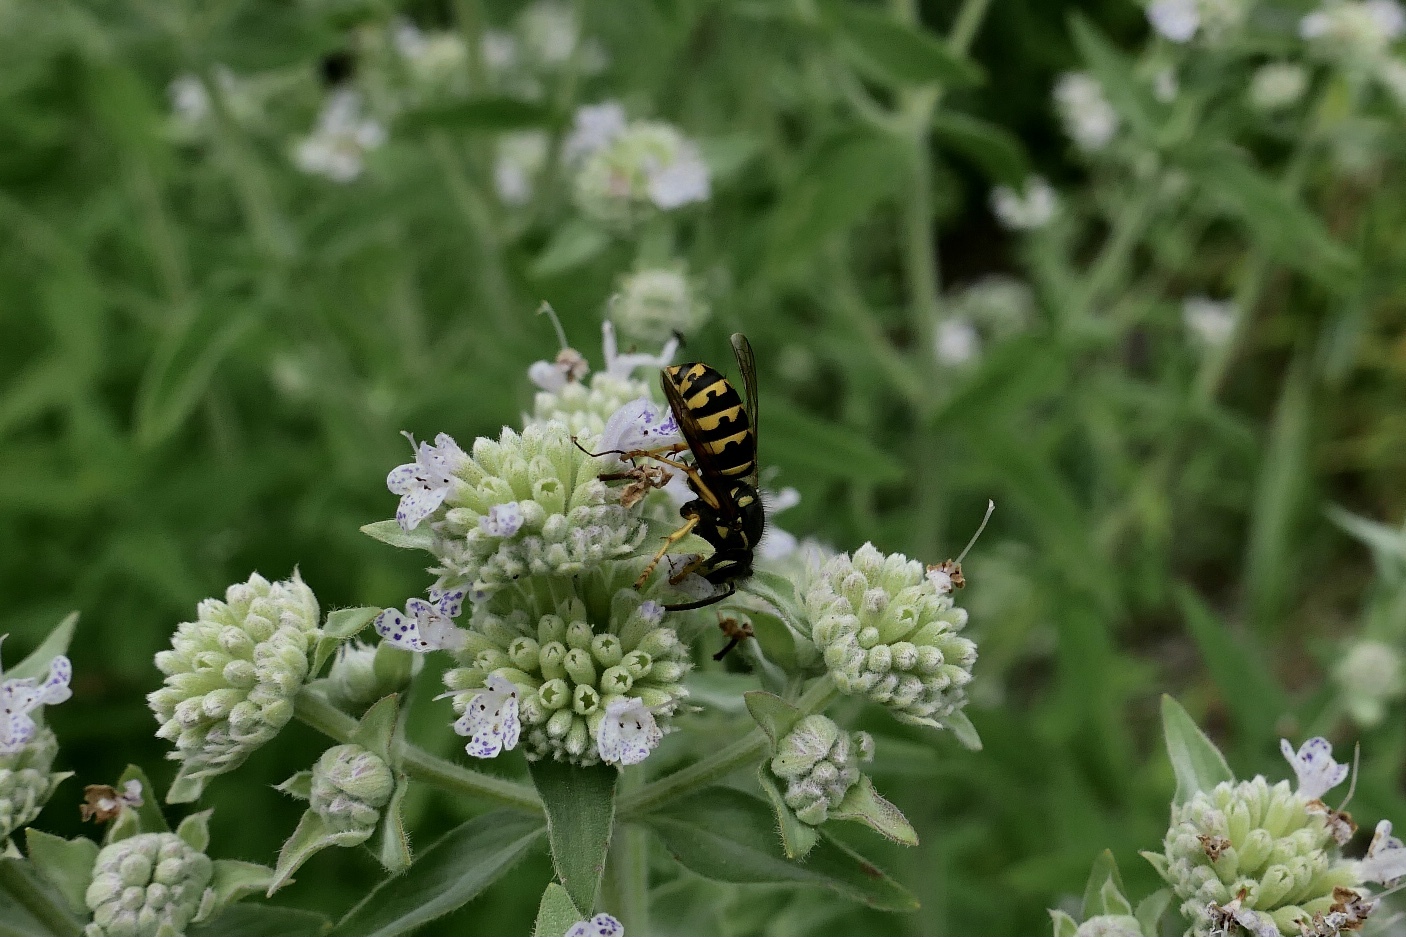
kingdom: Animalia
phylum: Arthropoda
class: Insecta
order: Hymenoptera
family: Vespidae
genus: Dolichovespula
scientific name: Dolichovespula arenaria
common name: Aerial yellowjacket
